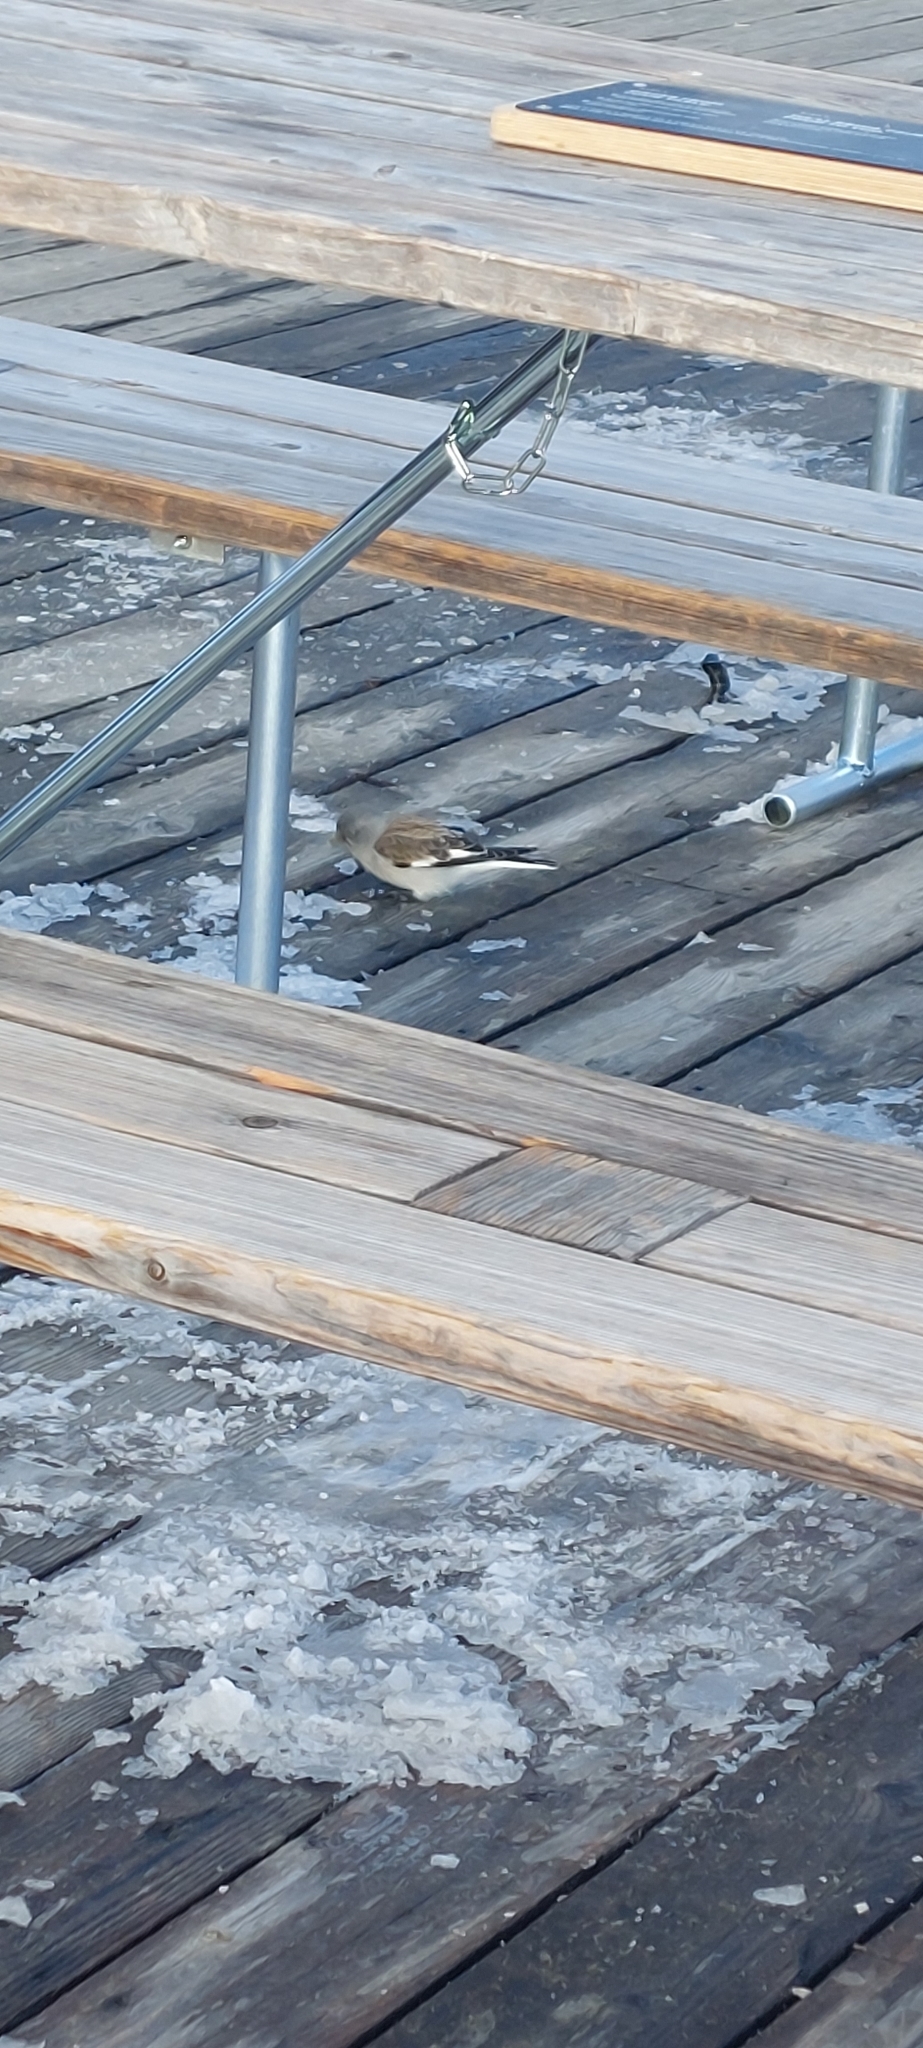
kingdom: Animalia
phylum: Chordata
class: Aves
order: Passeriformes
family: Passeridae
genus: Montifringilla
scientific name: Montifringilla nivalis
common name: White-winged snowfinch
